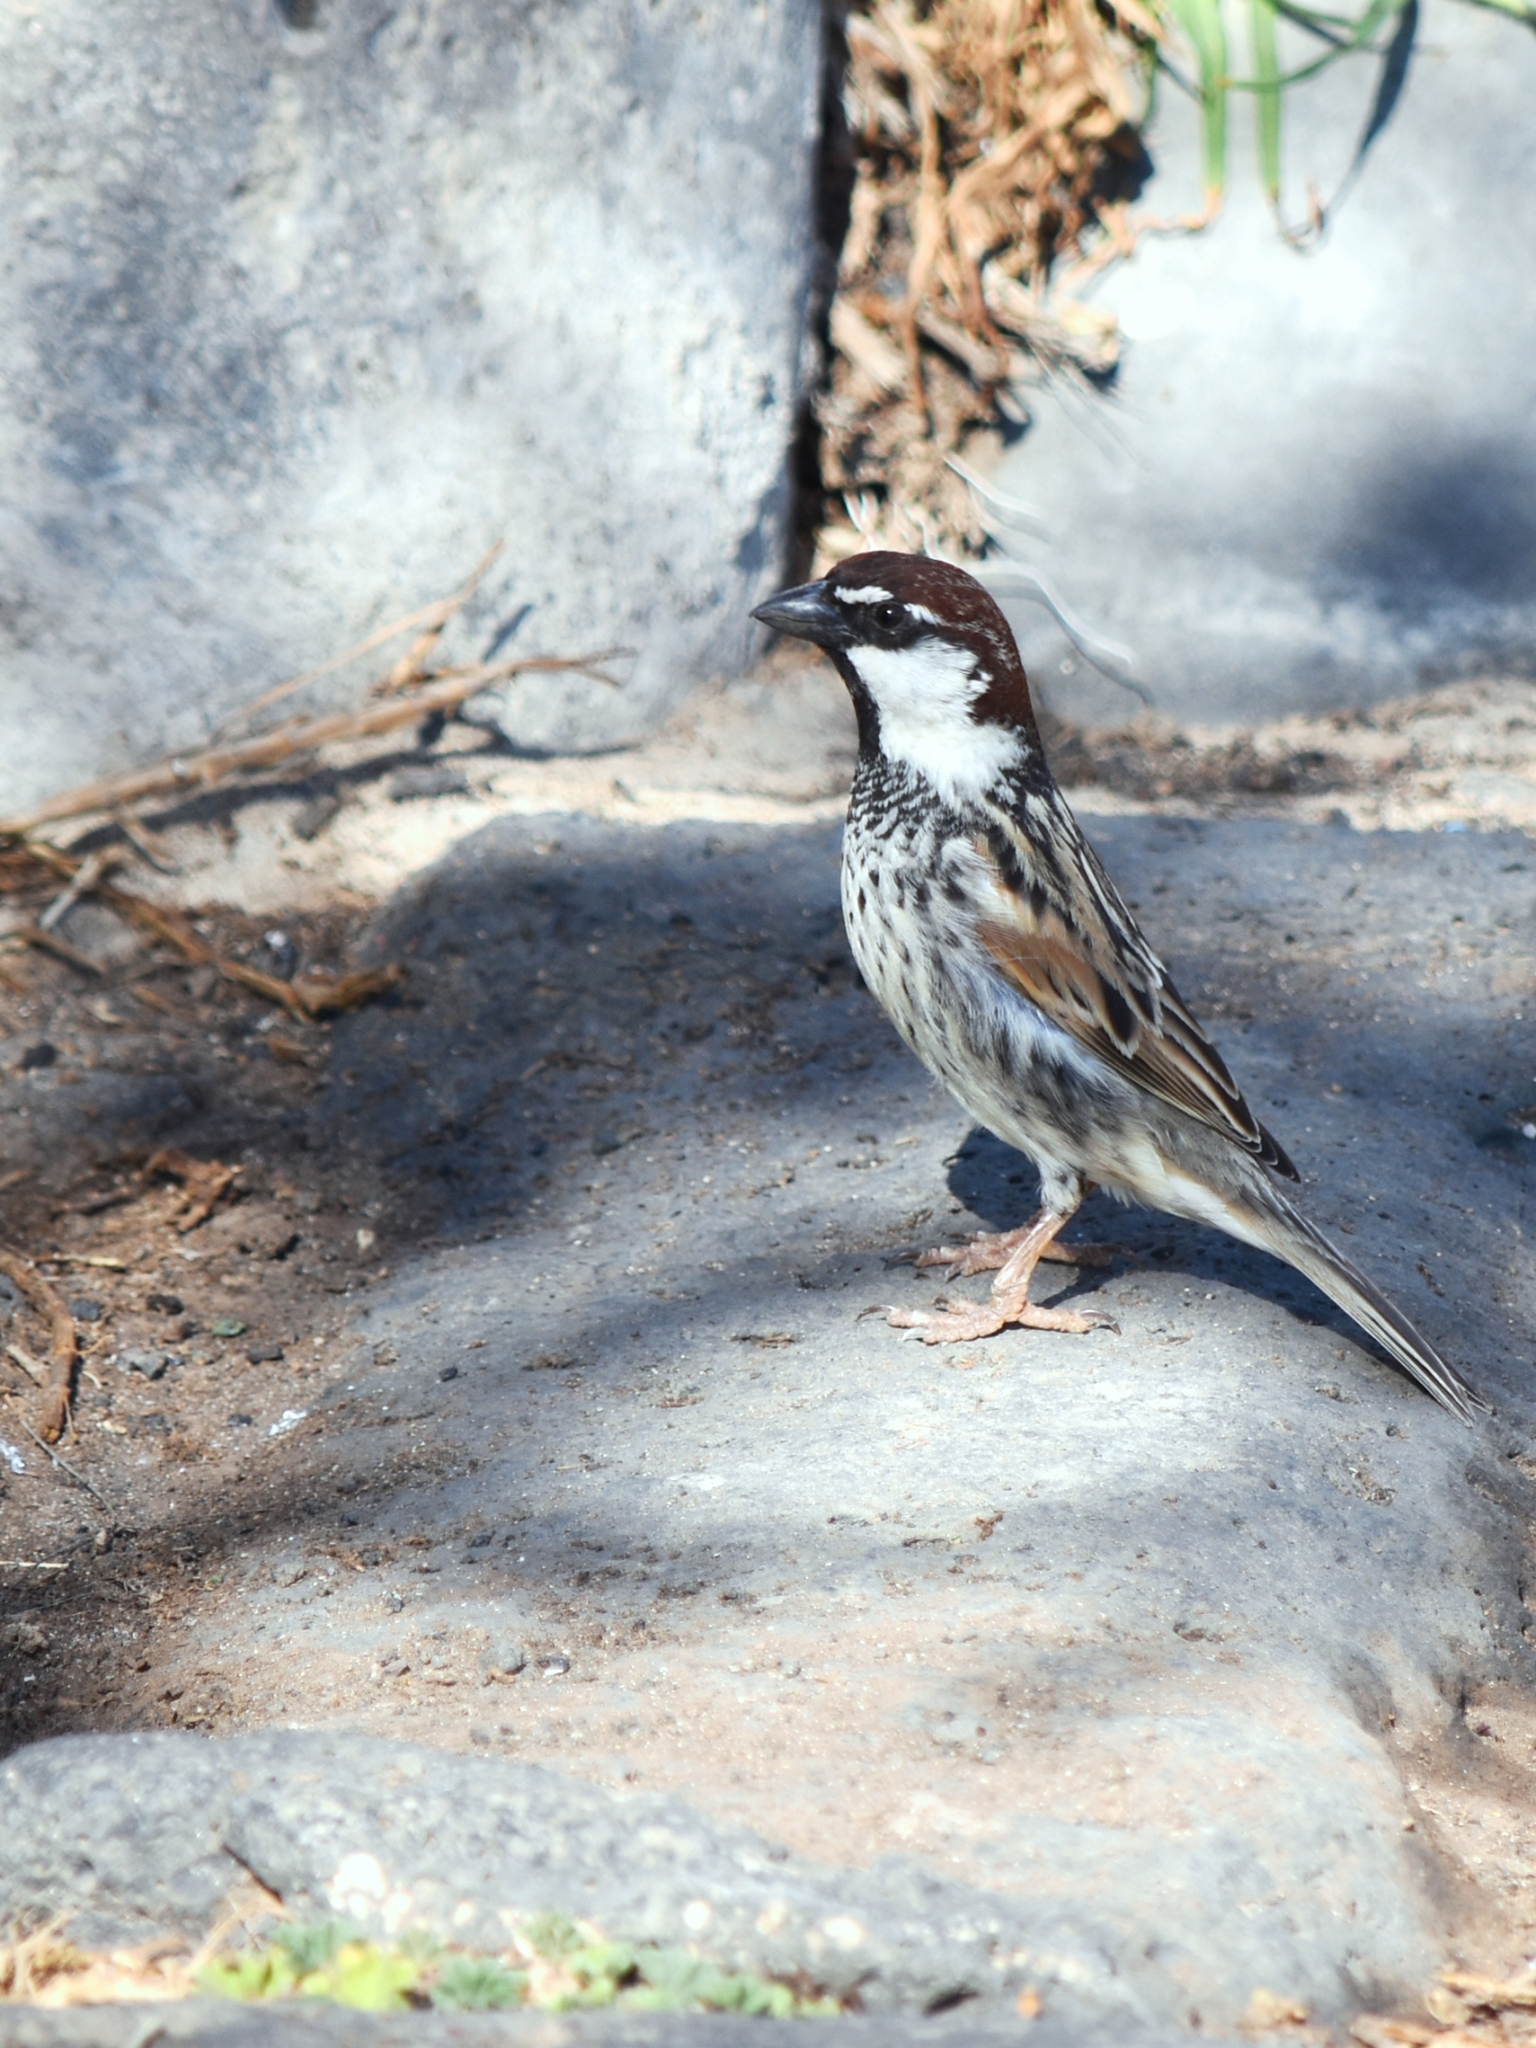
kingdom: Animalia
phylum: Chordata
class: Aves
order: Passeriformes
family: Passeridae
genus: Passer
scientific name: Passer hispaniolensis
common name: Spanish sparrow
